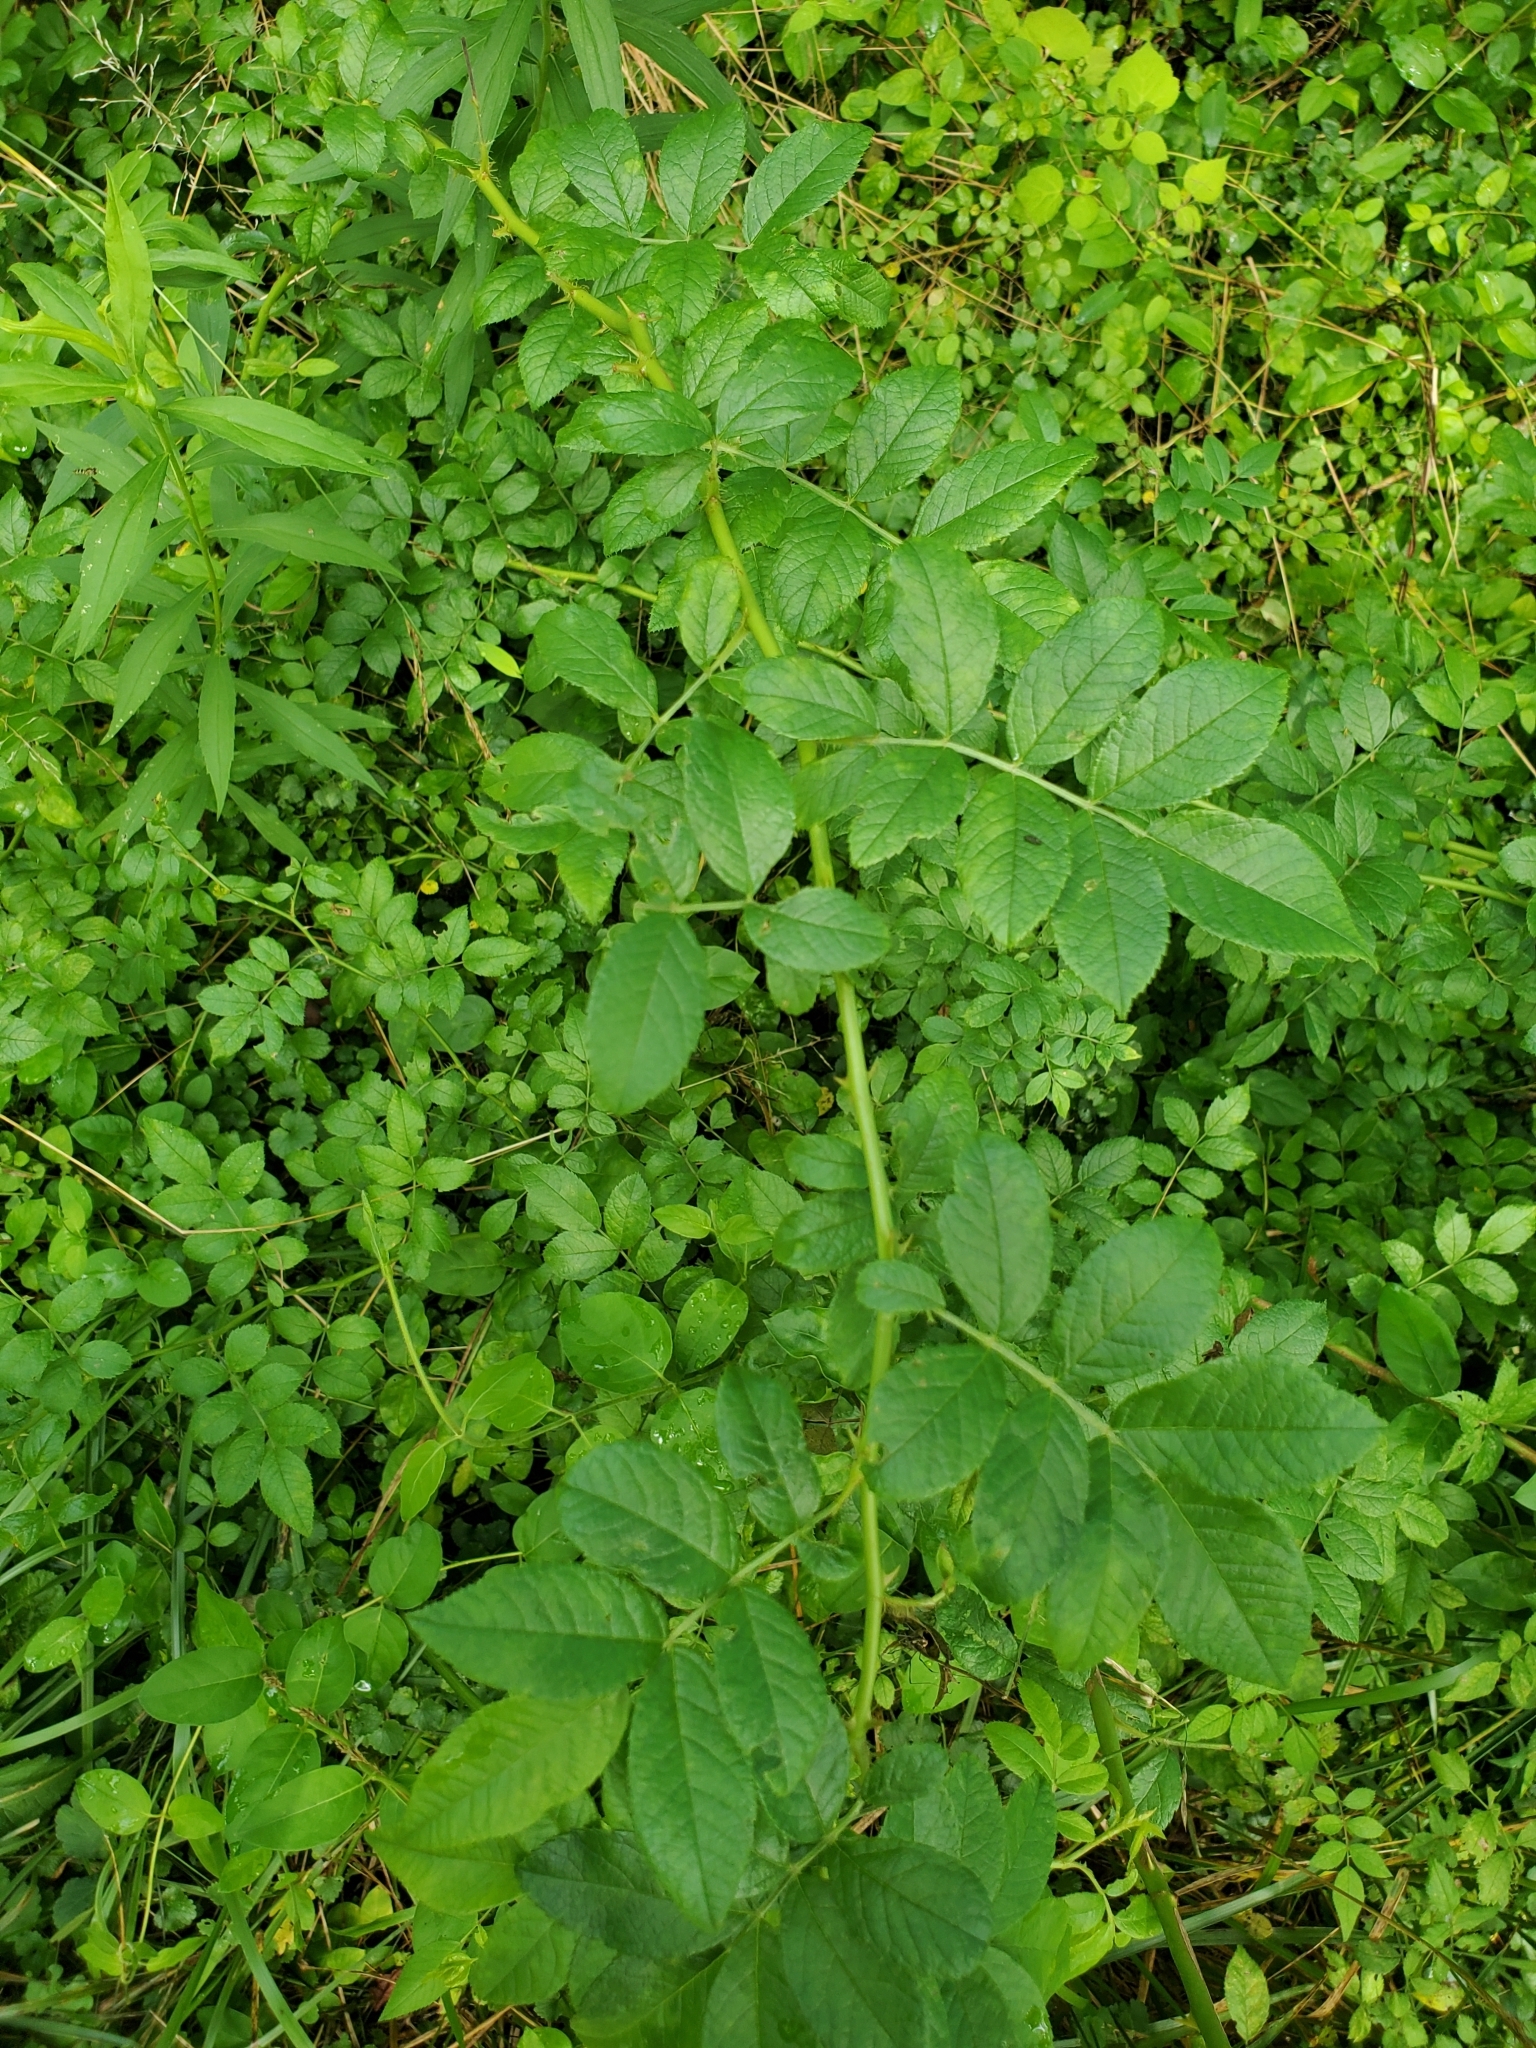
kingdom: Plantae
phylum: Tracheophyta
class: Magnoliopsida
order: Rosales
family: Rosaceae
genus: Rosa
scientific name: Rosa multiflora
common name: Multiflora rose
